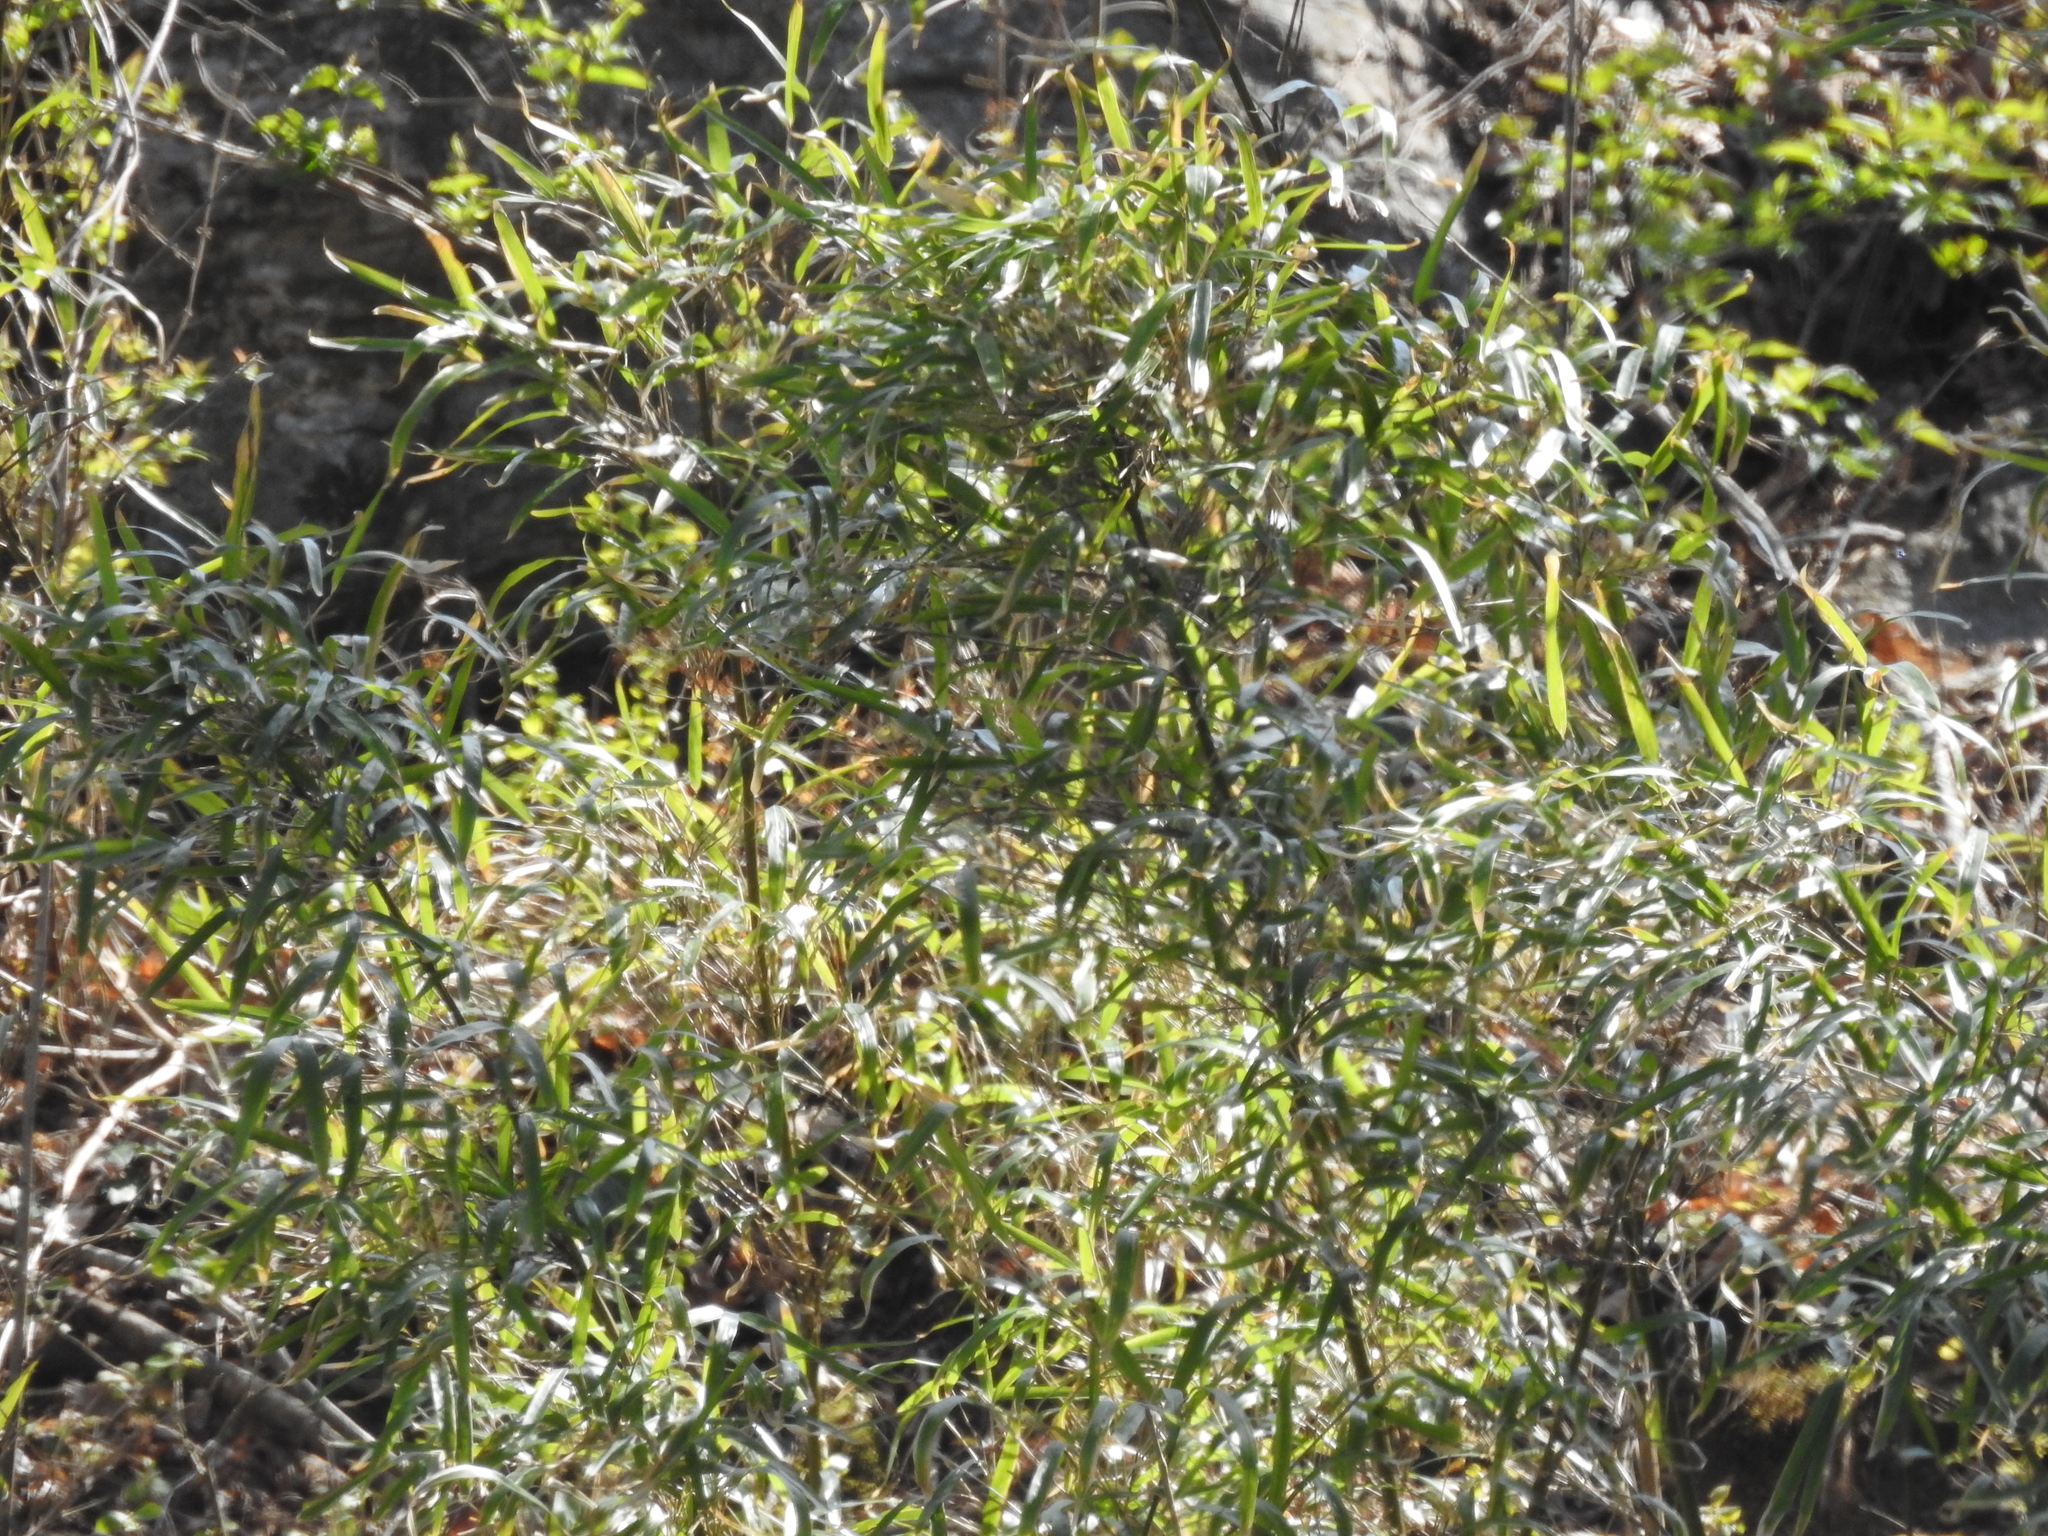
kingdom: Plantae
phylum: Tracheophyta
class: Liliopsida
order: Poales
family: Poaceae
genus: Arundinaria
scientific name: Arundinaria gigantea
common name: Giant cane
